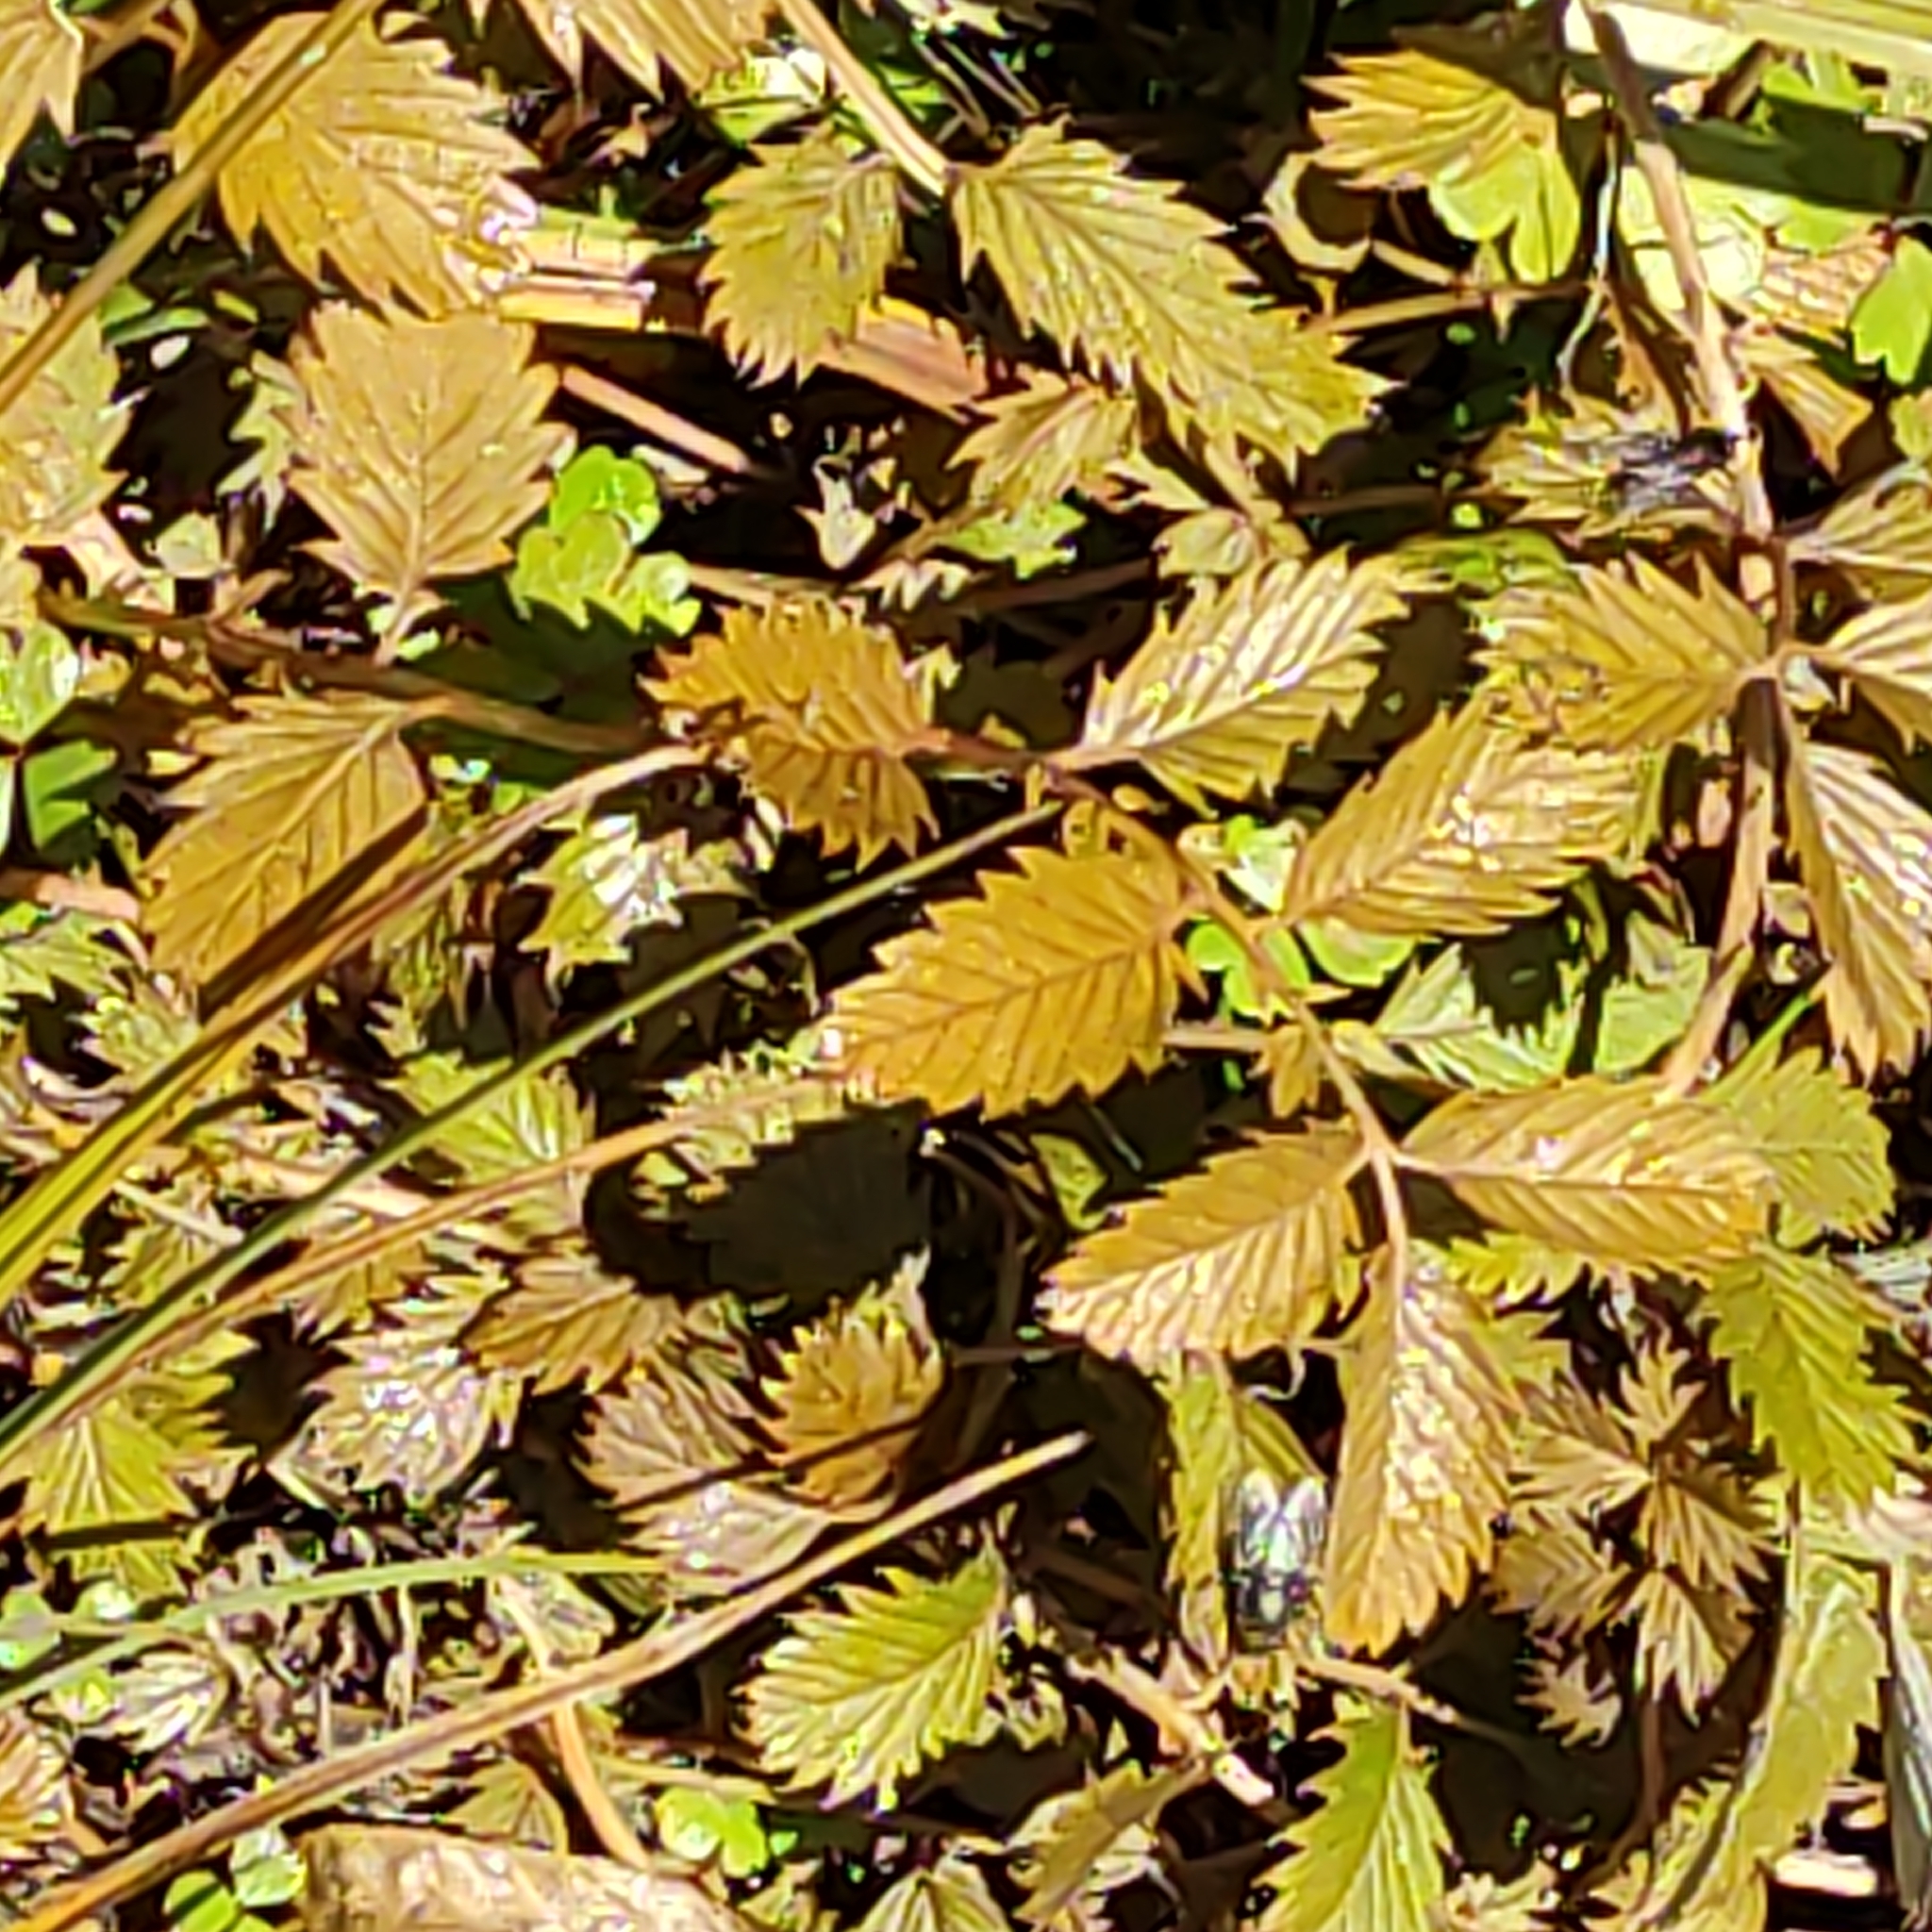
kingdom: Plantae
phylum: Tracheophyta
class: Magnoliopsida
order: Rosales
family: Rosaceae
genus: Argentina
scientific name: Argentina anserinoides
